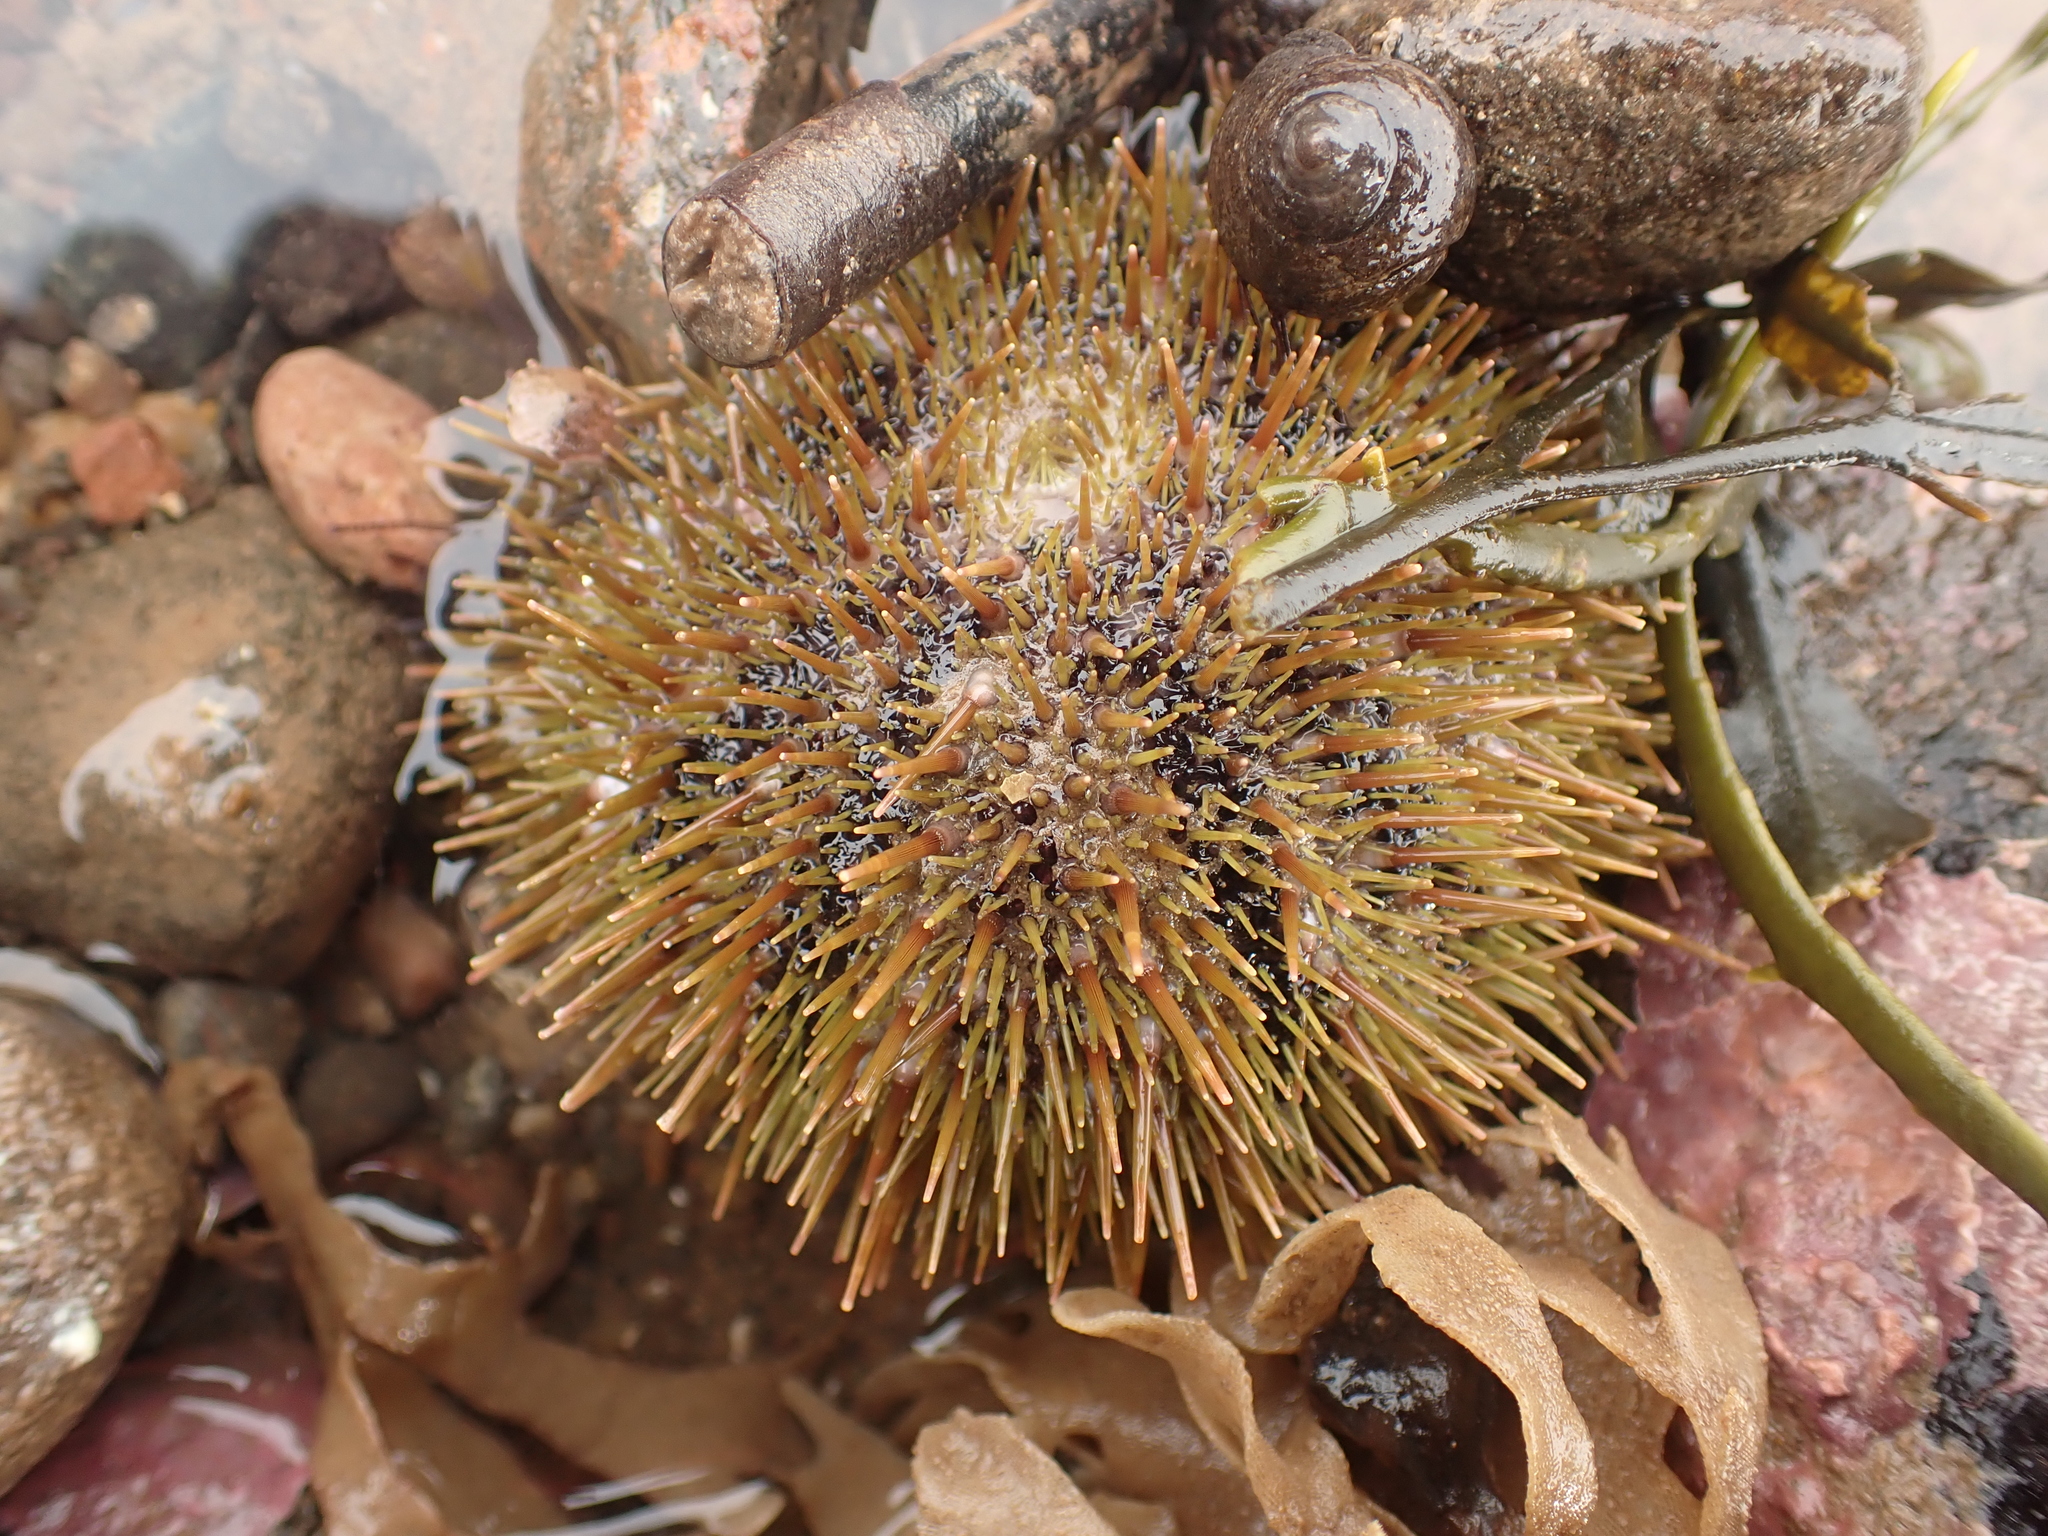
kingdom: Animalia
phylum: Echinodermata
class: Echinoidea
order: Camarodonta
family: Strongylocentrotidae
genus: Strongylocentrotus
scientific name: Strongylocentrotus droebachiensis
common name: Northern sea urchin
